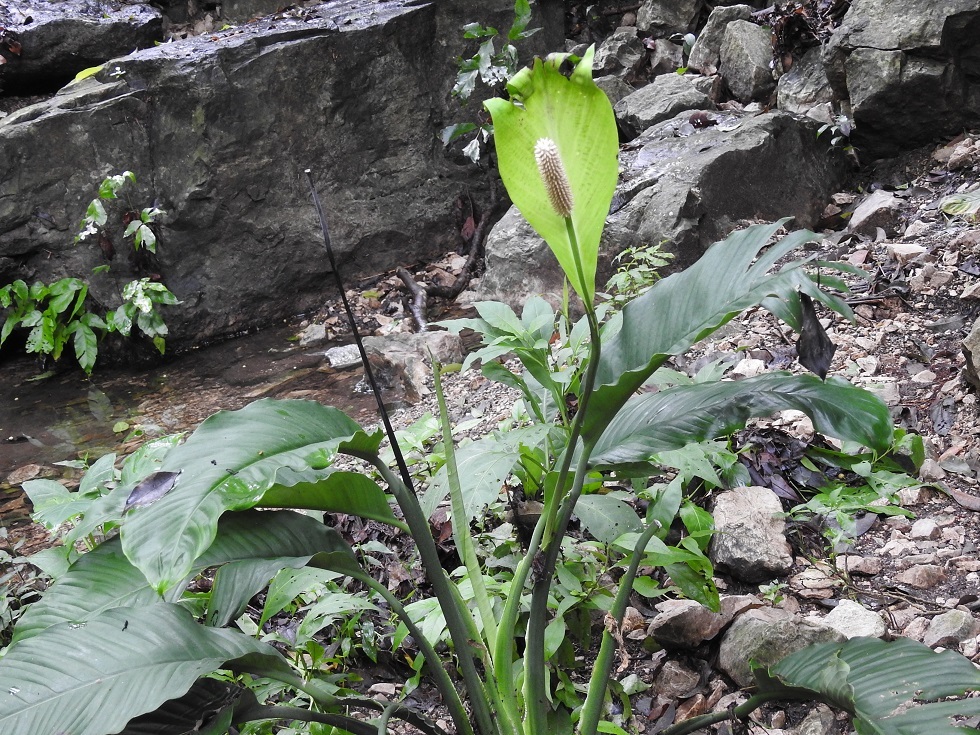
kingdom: Plantae
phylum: Tracheophyta
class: Liliopsida
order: Alismatales
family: Araceae
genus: Spathiphyllum
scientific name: Spathiphyllum cochlearispathum
